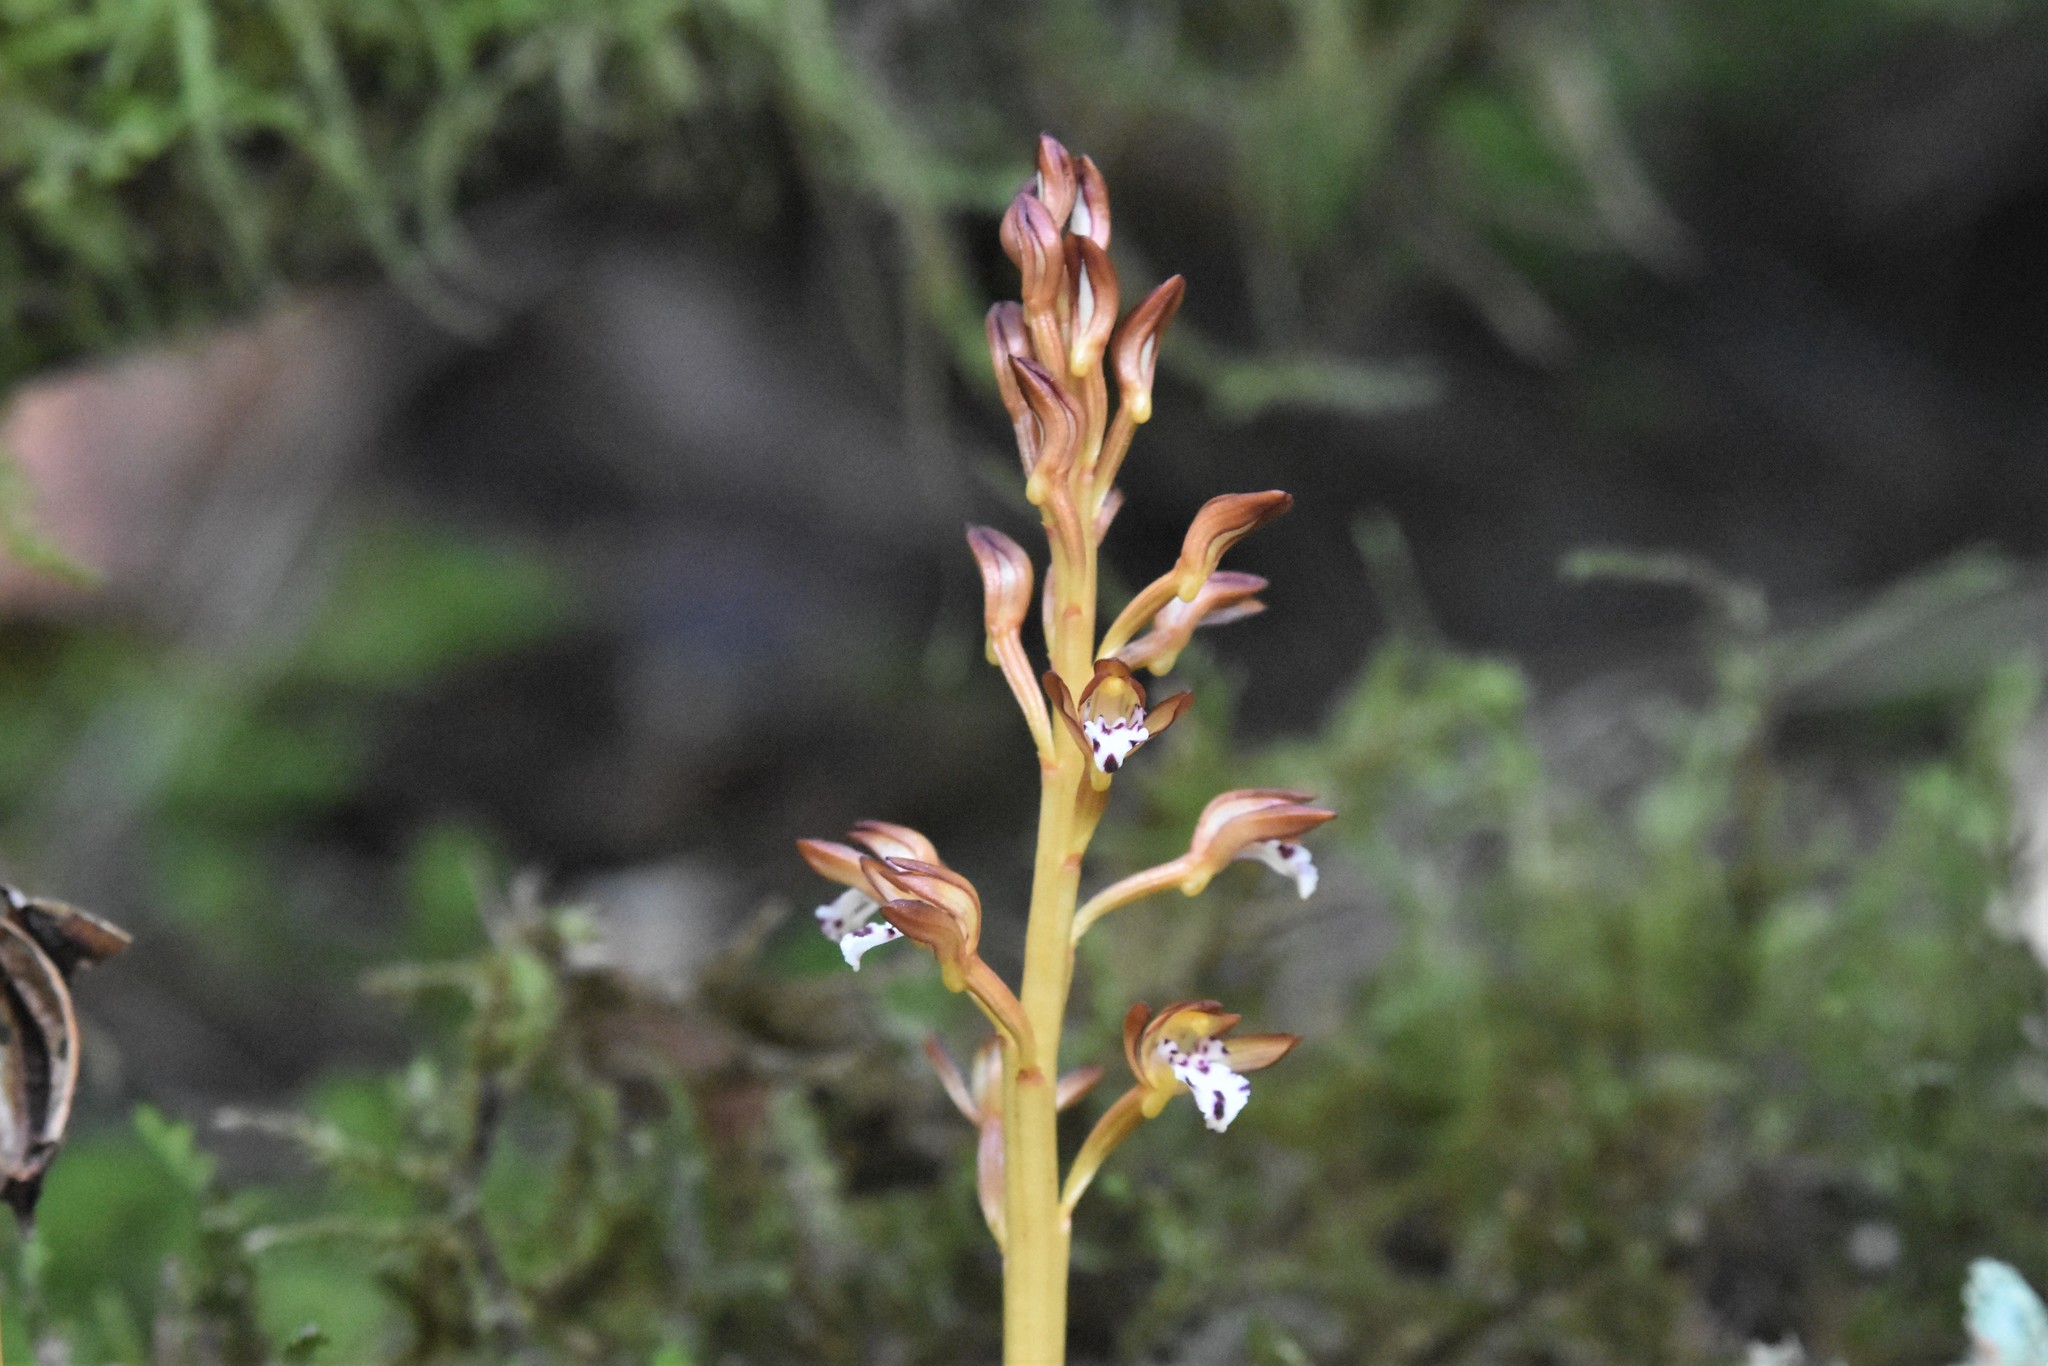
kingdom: Plantae
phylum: Tracheophyta
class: Liliopsida
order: Asparagales
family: Orchidaceae
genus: Corallorhiza
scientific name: Corallorhiza maculata
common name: Spotted coralroot
